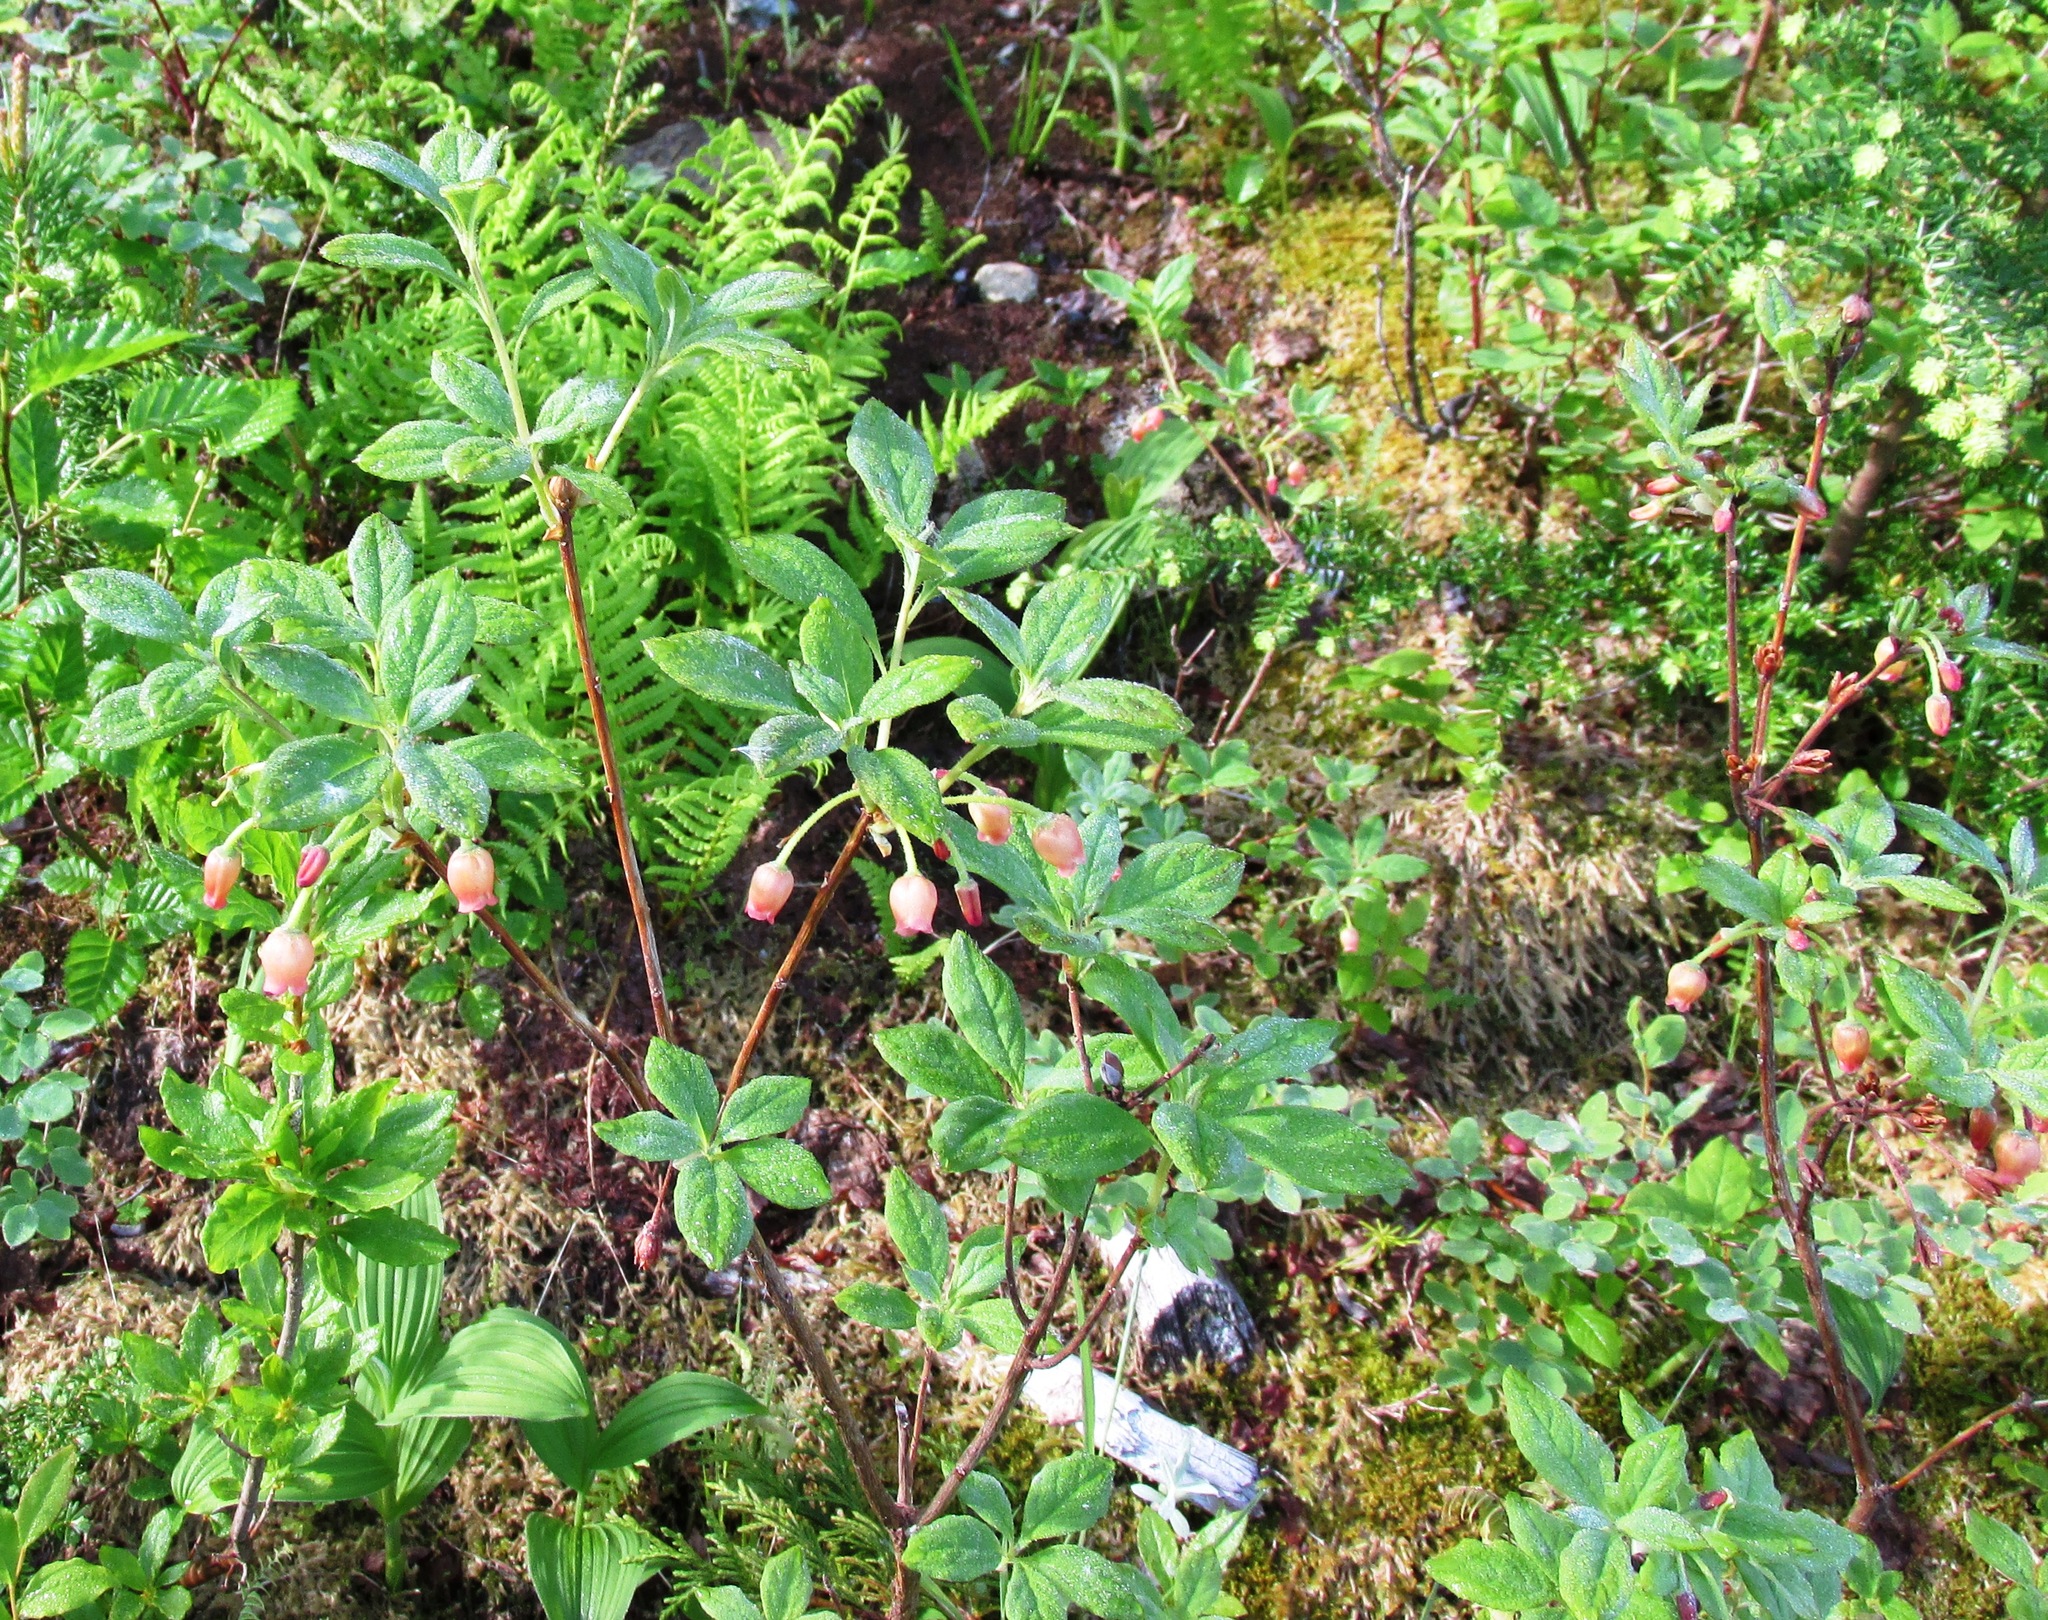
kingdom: Plantae
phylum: Tracheophyta
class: Magnoliopsida
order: Ericales
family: Ericaceae
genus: Rhododendron
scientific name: Rhododendron menziesii
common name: Pacific menziesia
